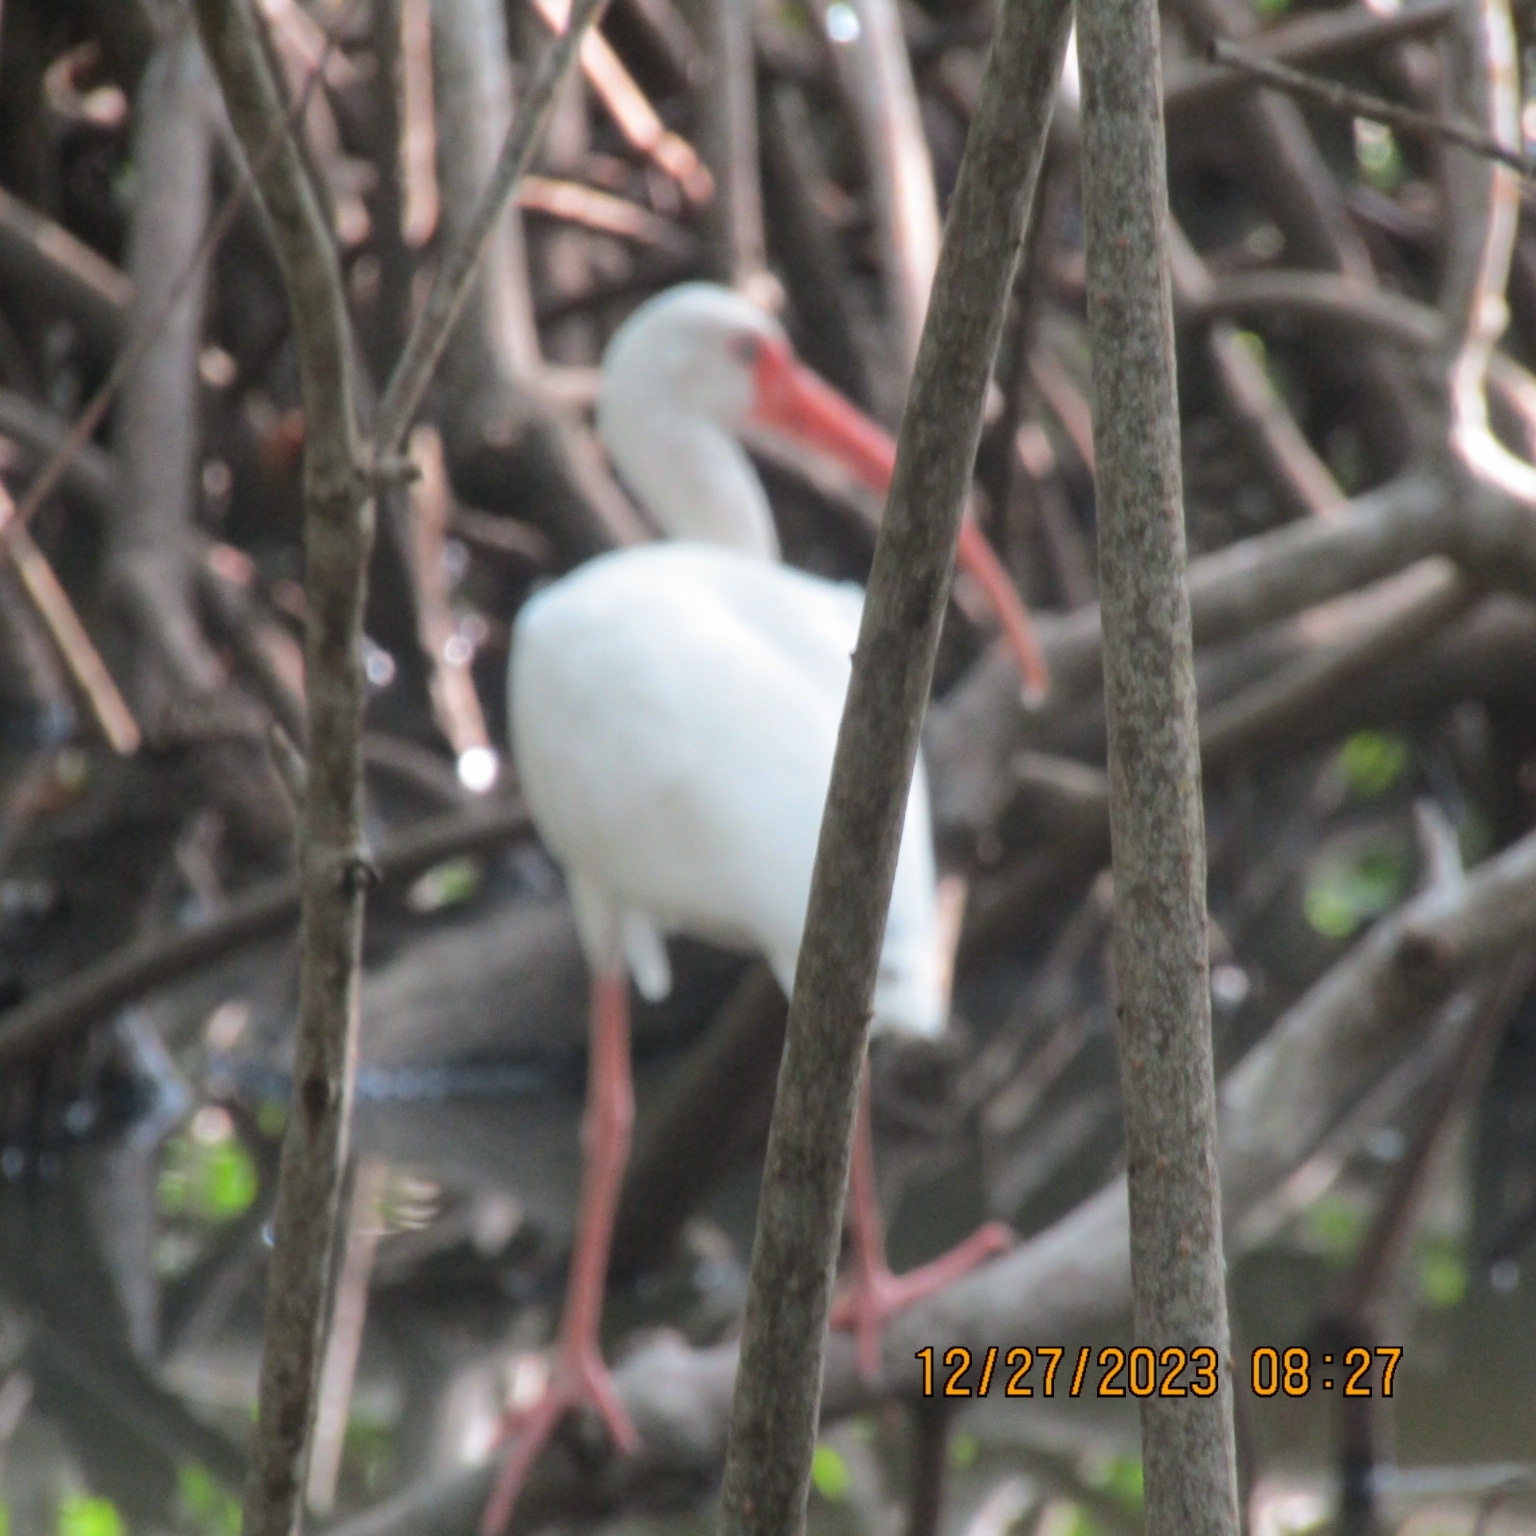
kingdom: Animalia
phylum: Chordata
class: Aves
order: Pelecaniformes
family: Threskiornithidae
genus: Eudocimus
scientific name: Eudocimus albus
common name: White ibis
